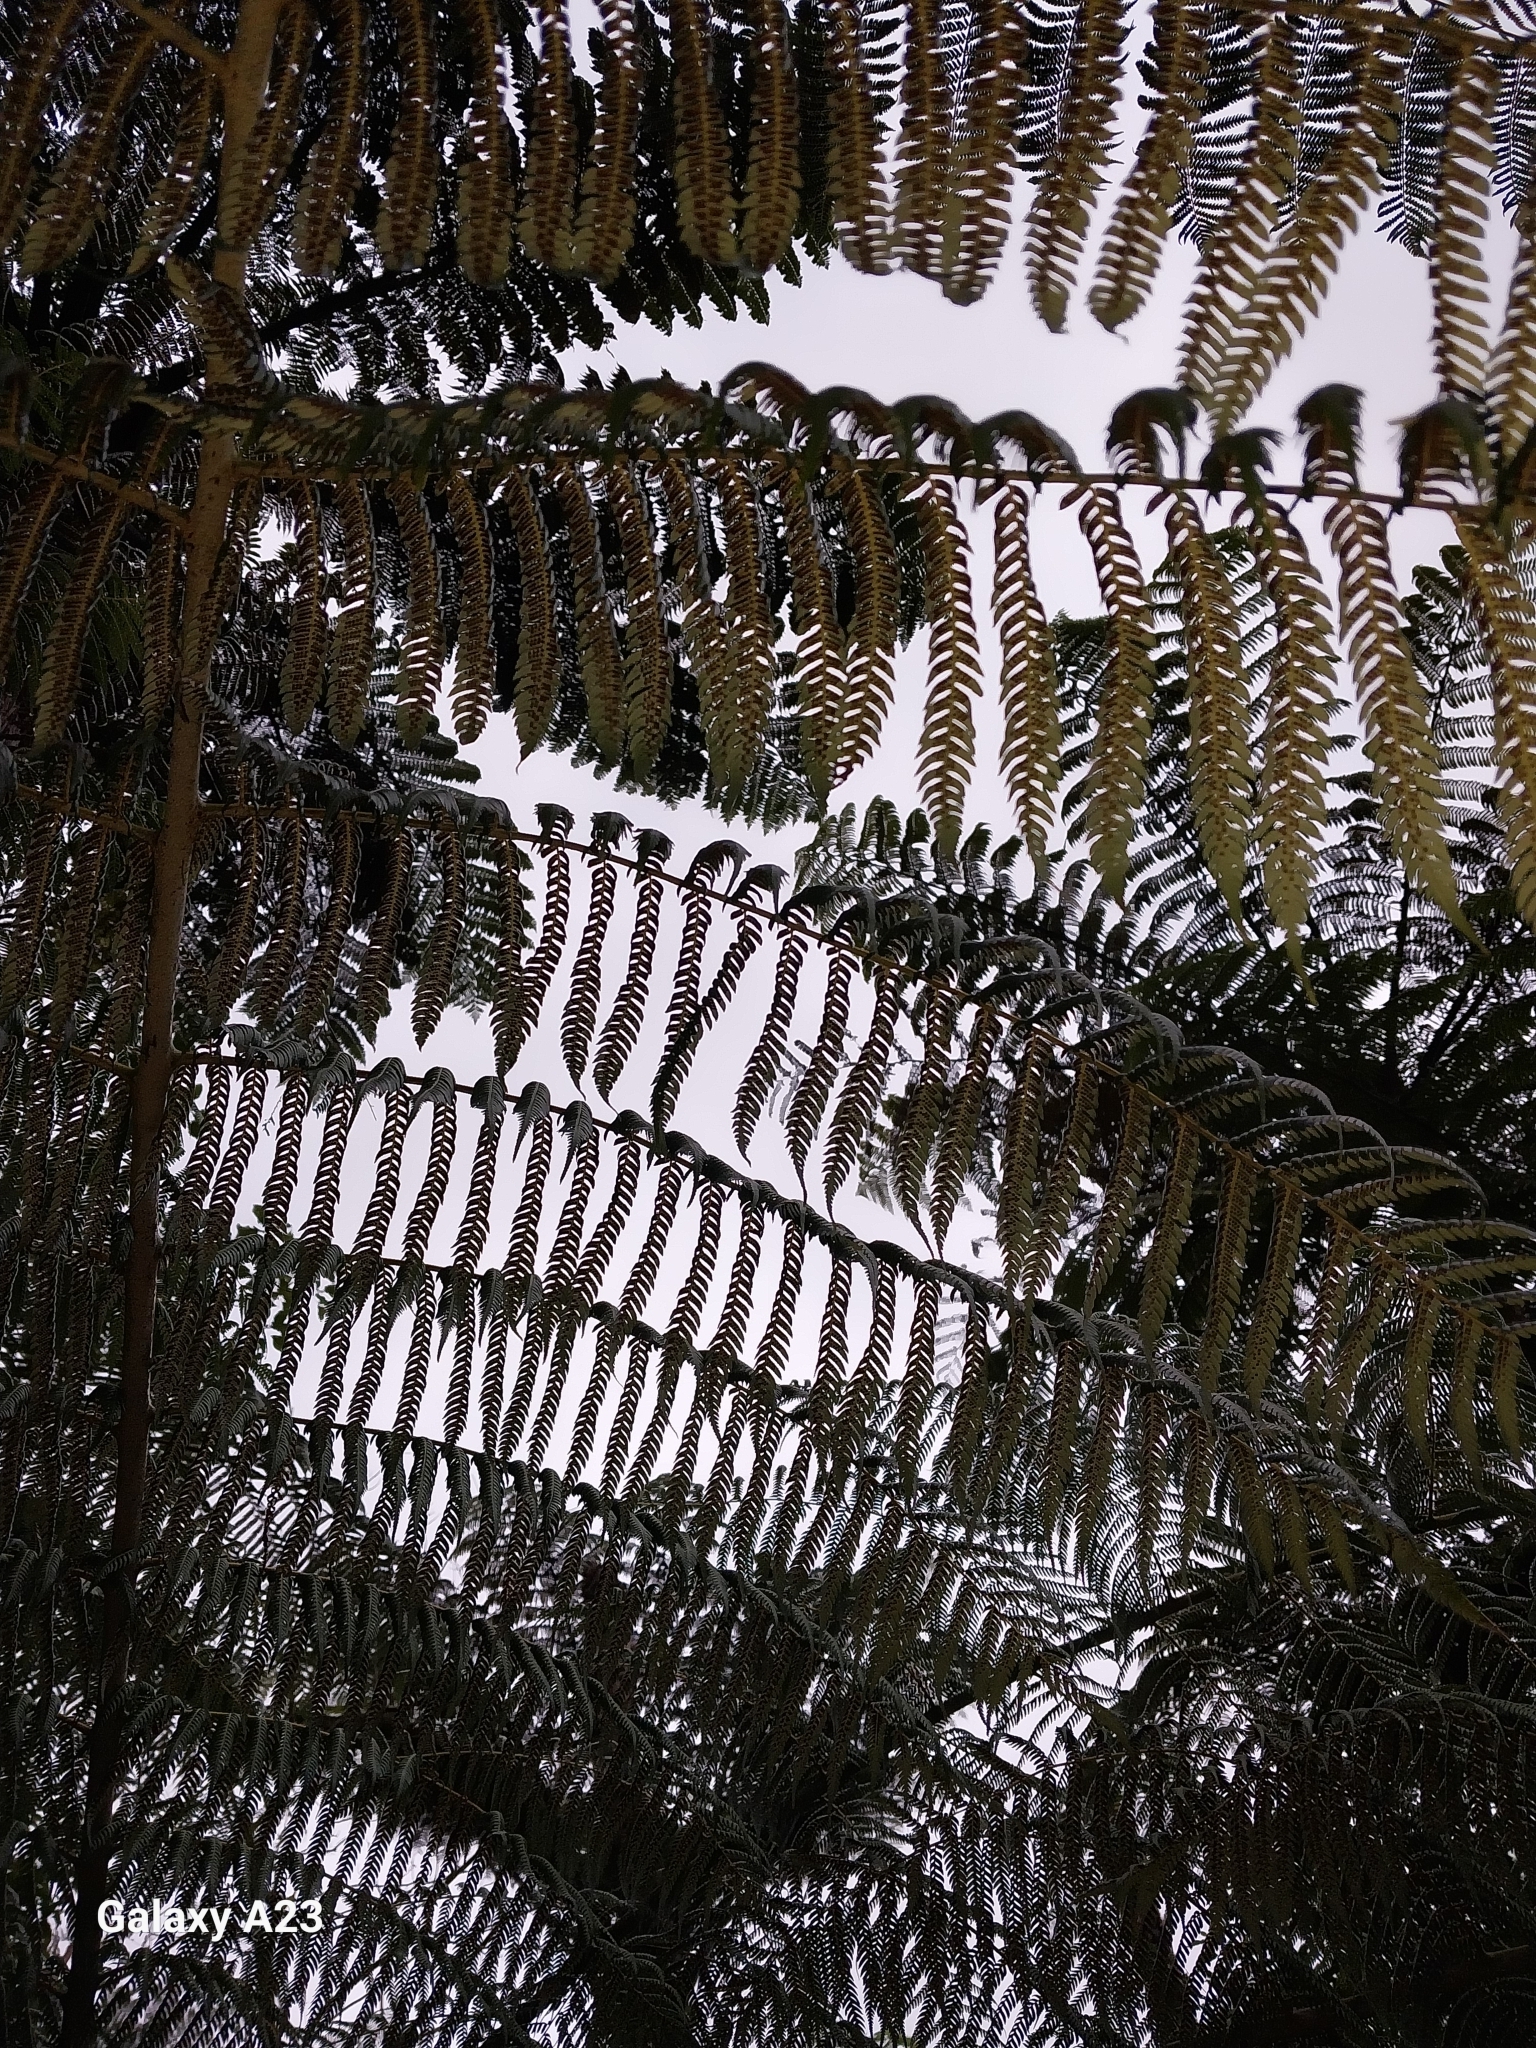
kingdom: Plantae
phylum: Tracheophyta
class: Polypodiopsida
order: Cyatheales
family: Cyatheaceae
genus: Alsophila
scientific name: Alsophila dealbata
